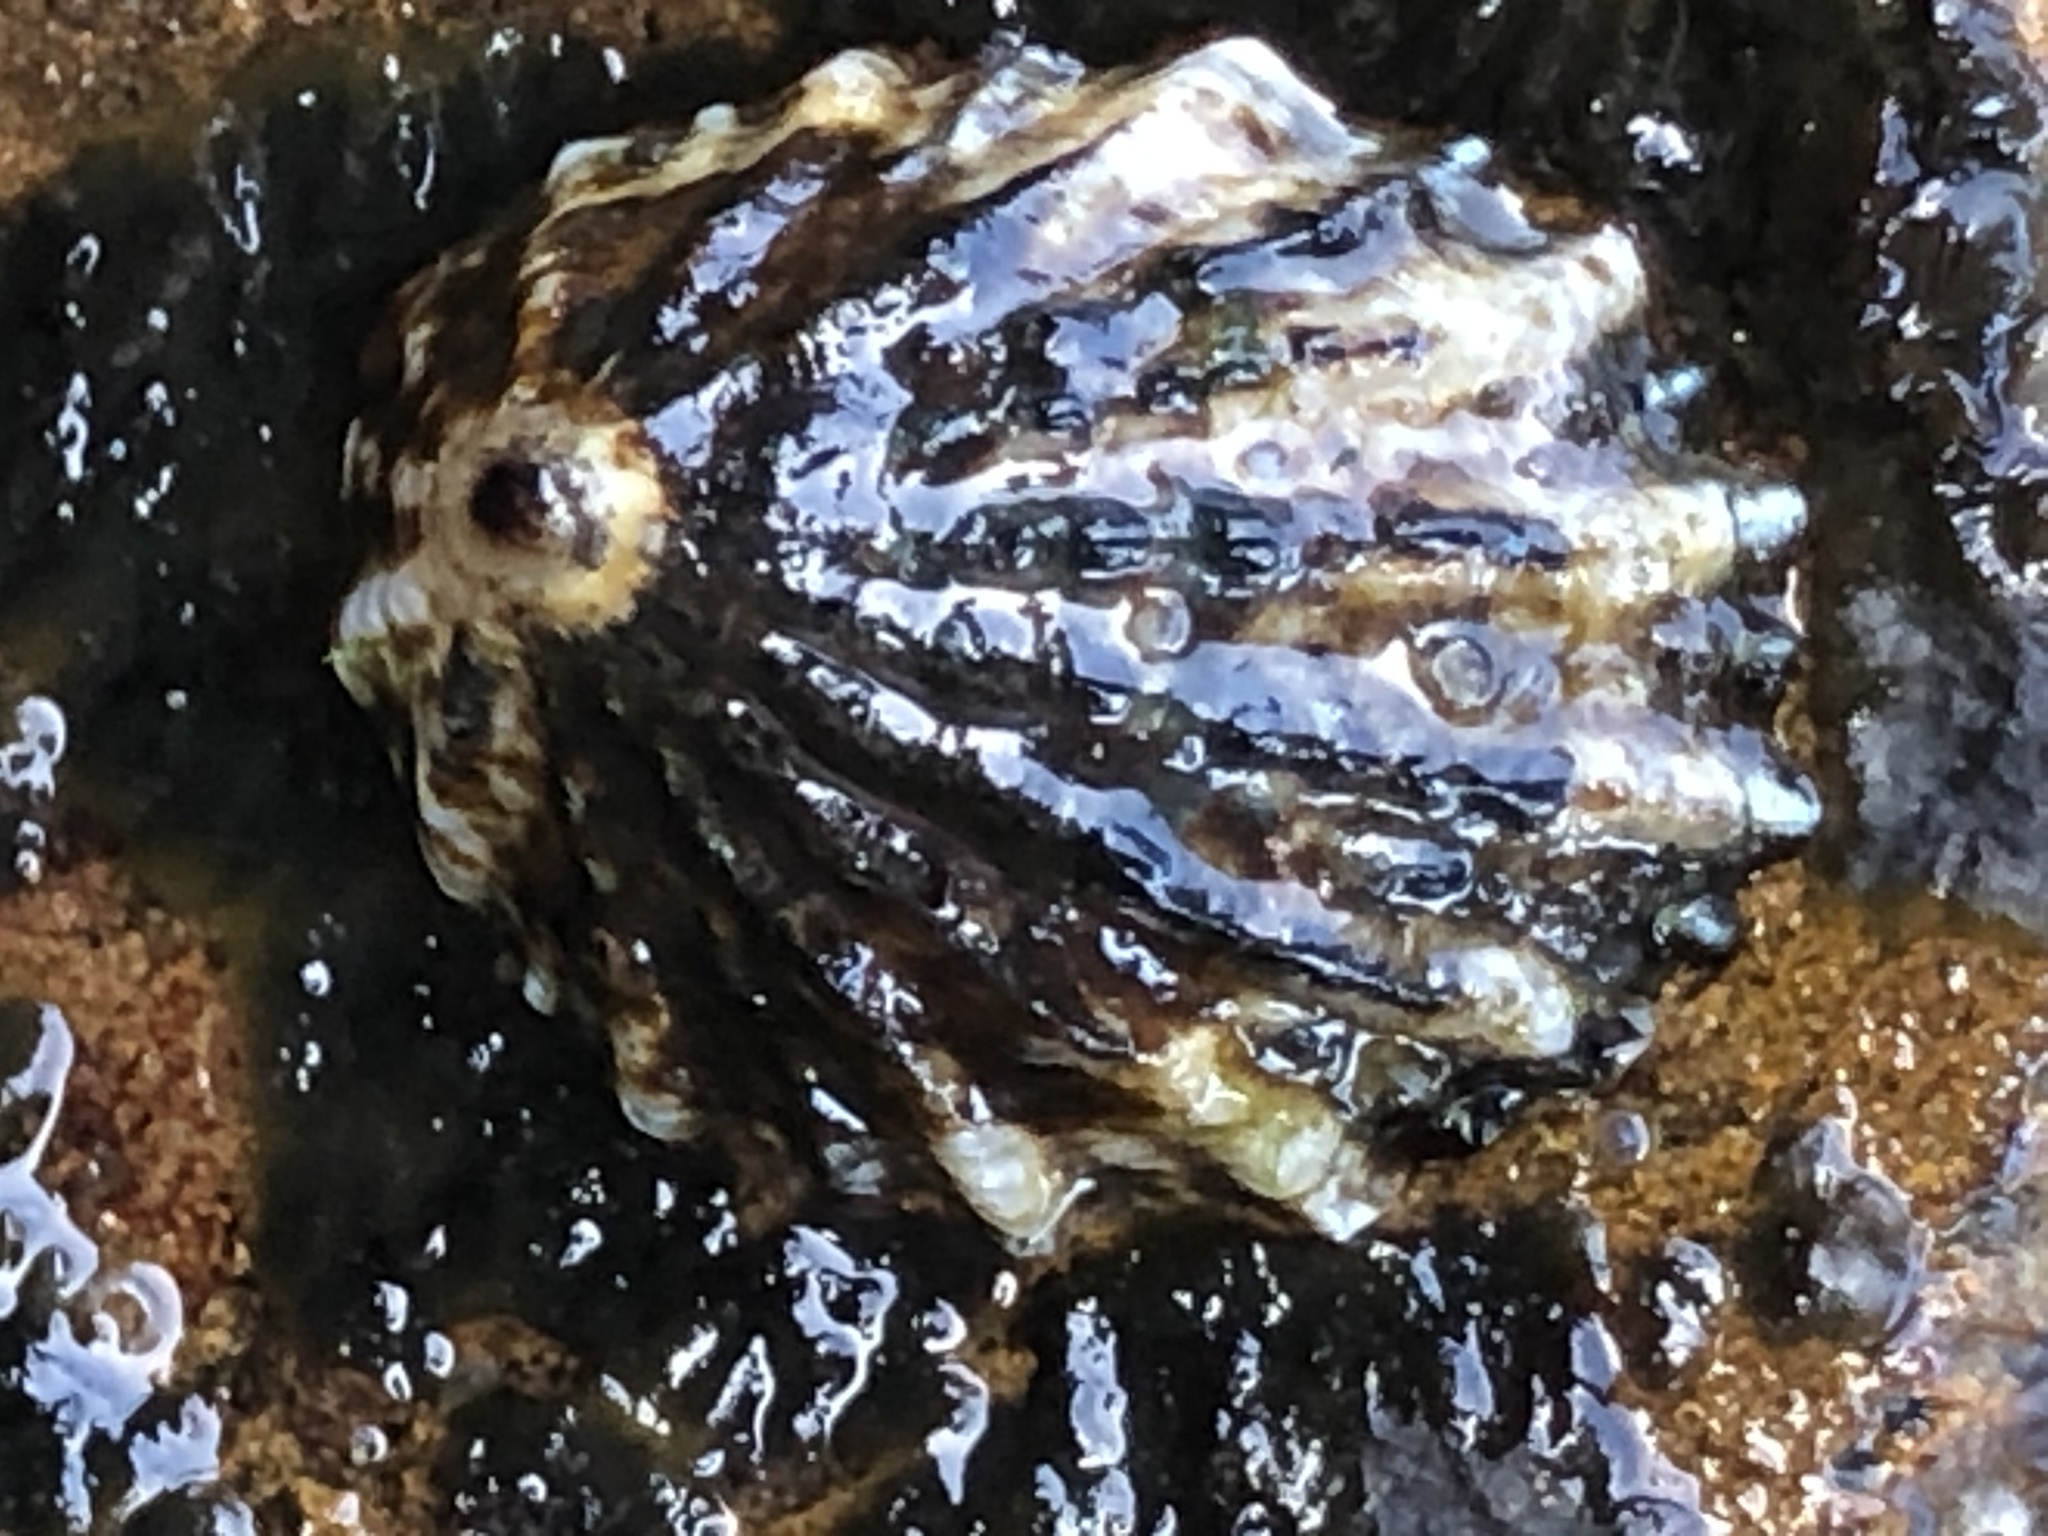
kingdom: Animalia
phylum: Mollusca
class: Gastropoda
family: Lottiidae
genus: Lottia
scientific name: Lottia scabra
